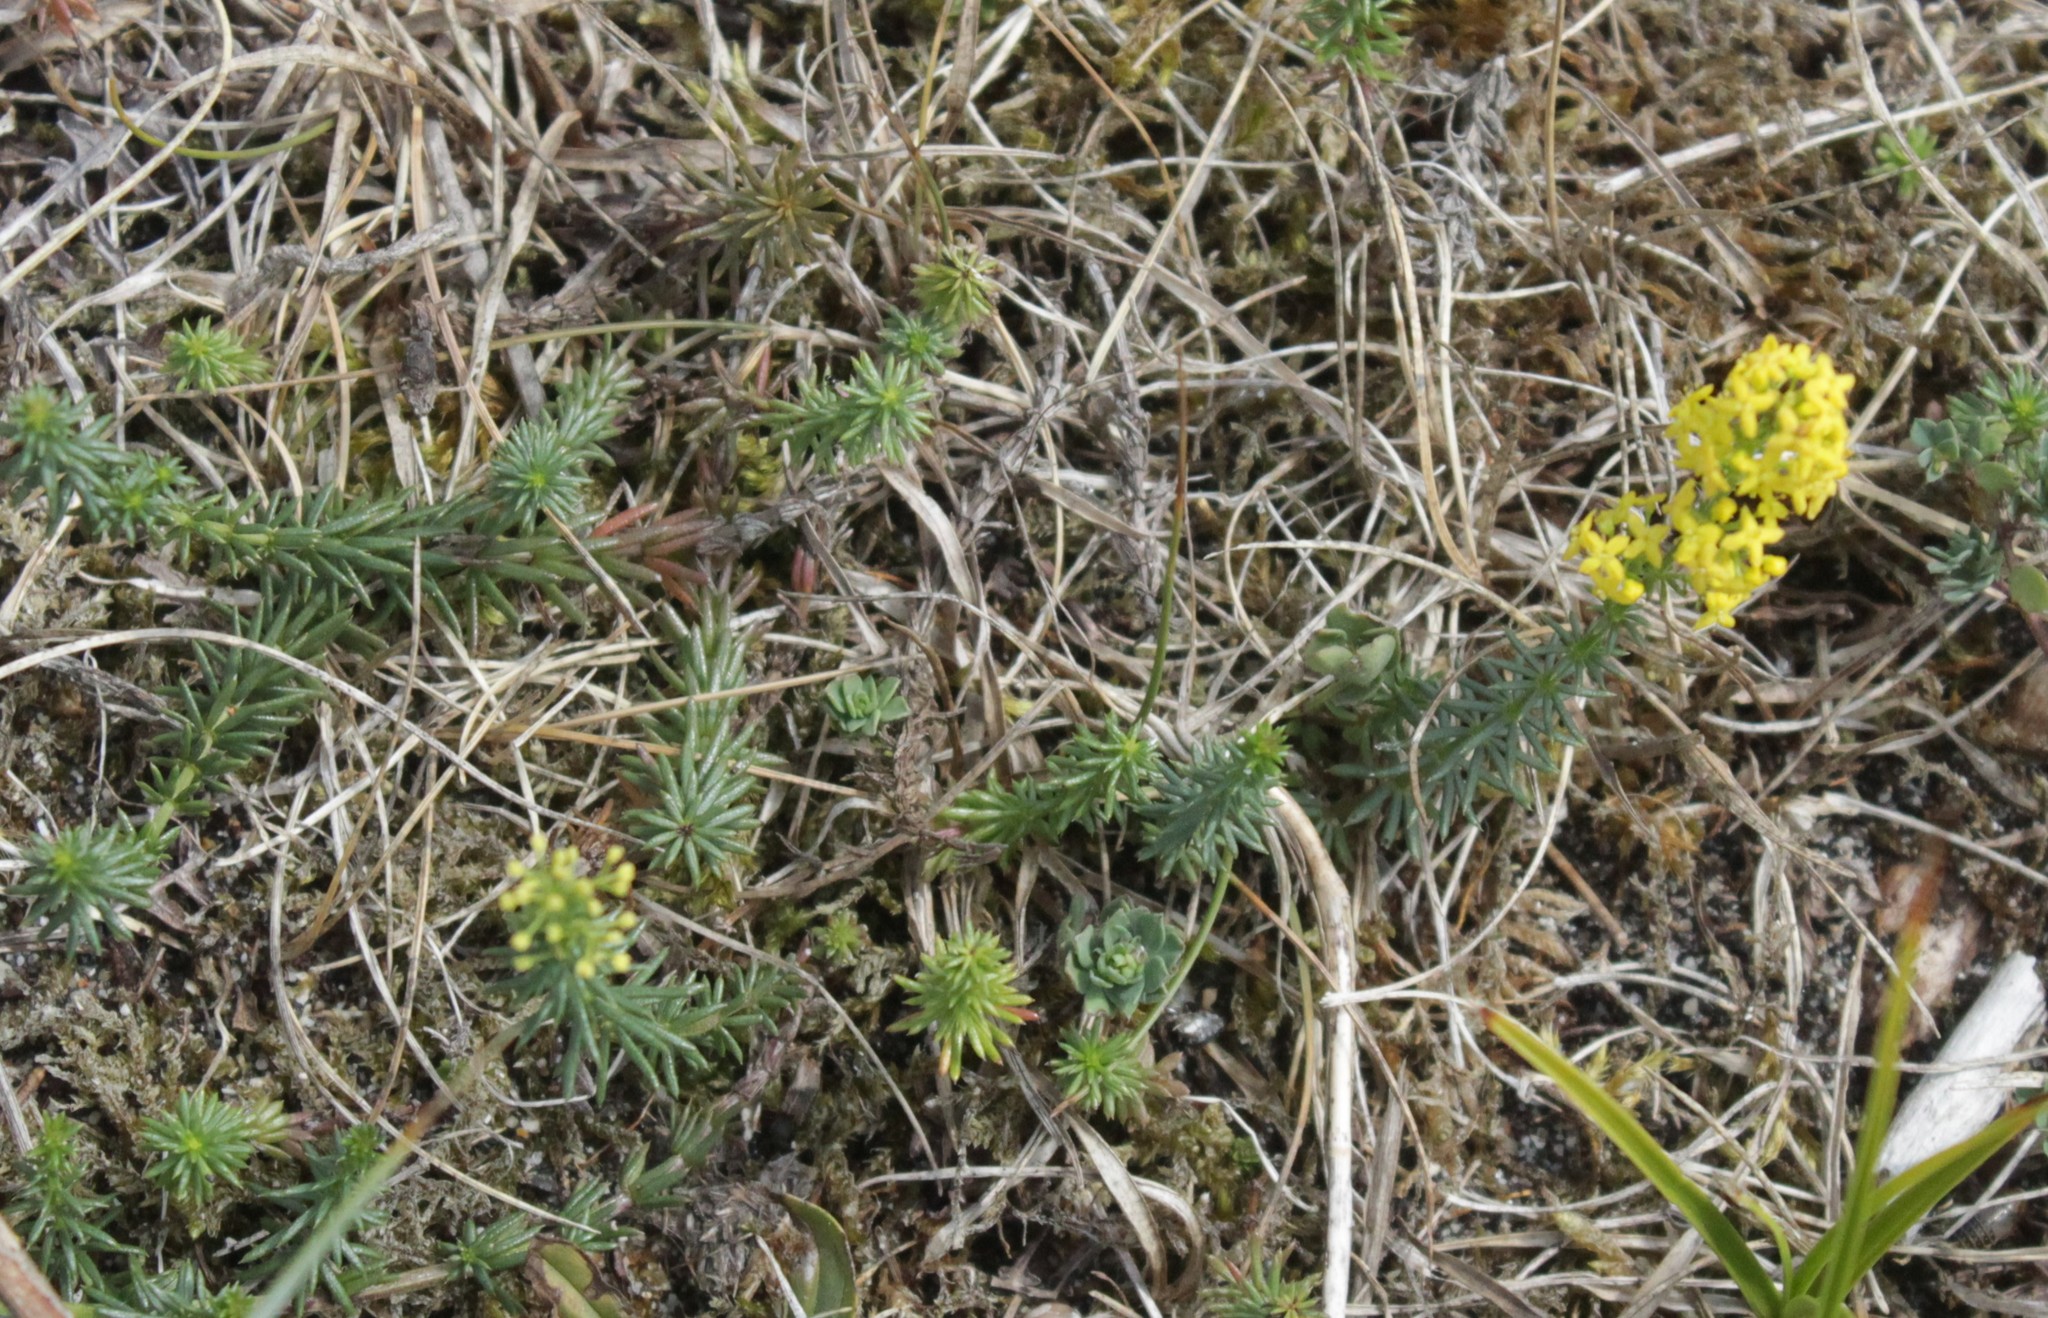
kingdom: Plantae
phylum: Tracheophyta
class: Magnoliopsida
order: Gentianales
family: Rubiaceae
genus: Galium
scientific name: Galium verum
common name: Lady's bedstraw
